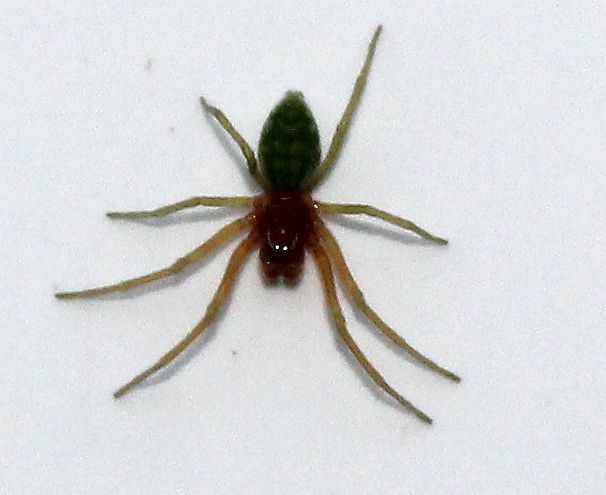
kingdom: Animalia
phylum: Arthropoda
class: Arachnida
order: Araneae
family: Dictynidae
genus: Nigma
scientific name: Nigma walckenaeri
